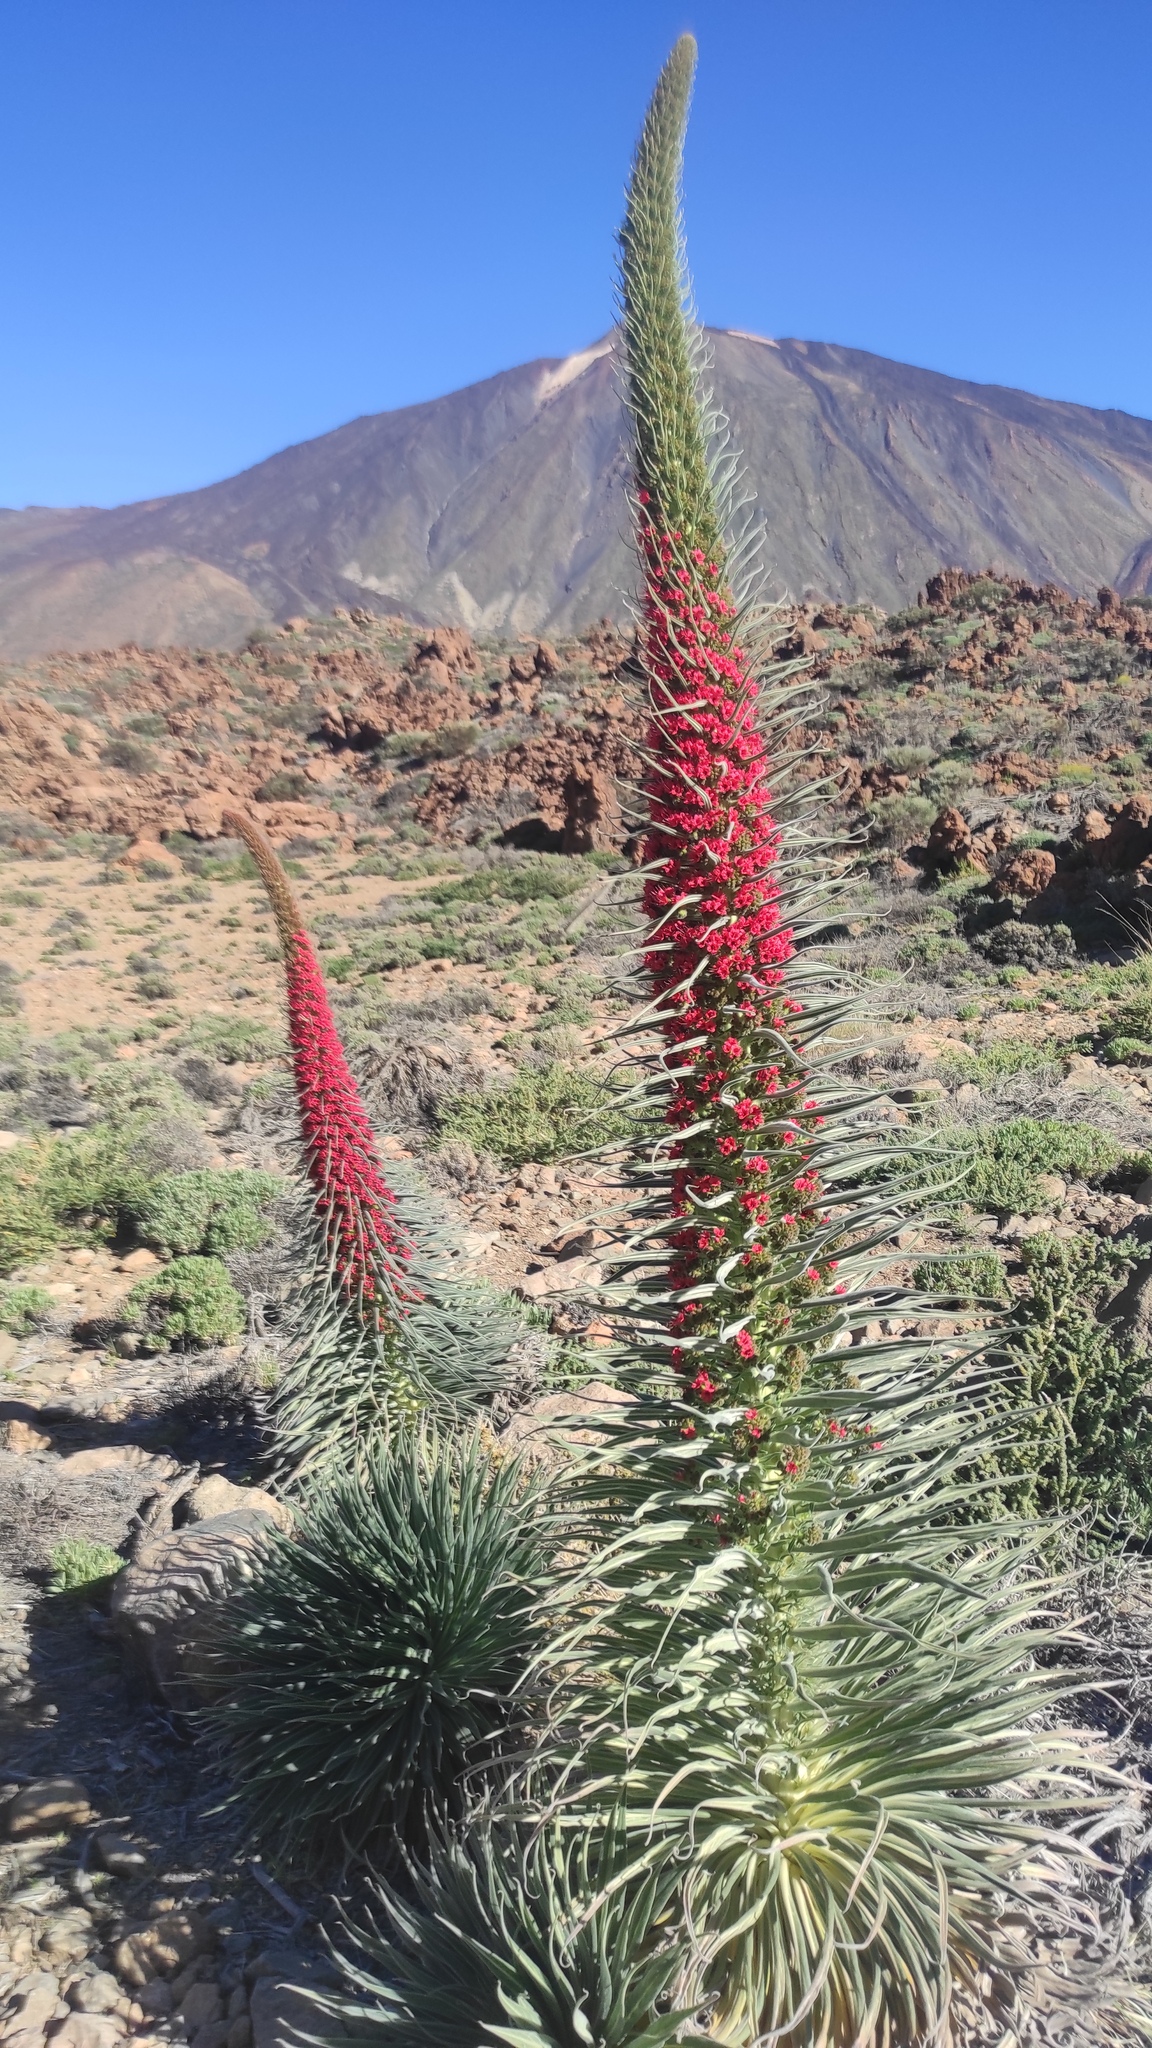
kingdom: Plantae
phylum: Tracheophyta
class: Magnoliopsida
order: Boraginales
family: Boraginaceae
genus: Echium
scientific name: Echium wildpretii
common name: Tower-of-jewels
